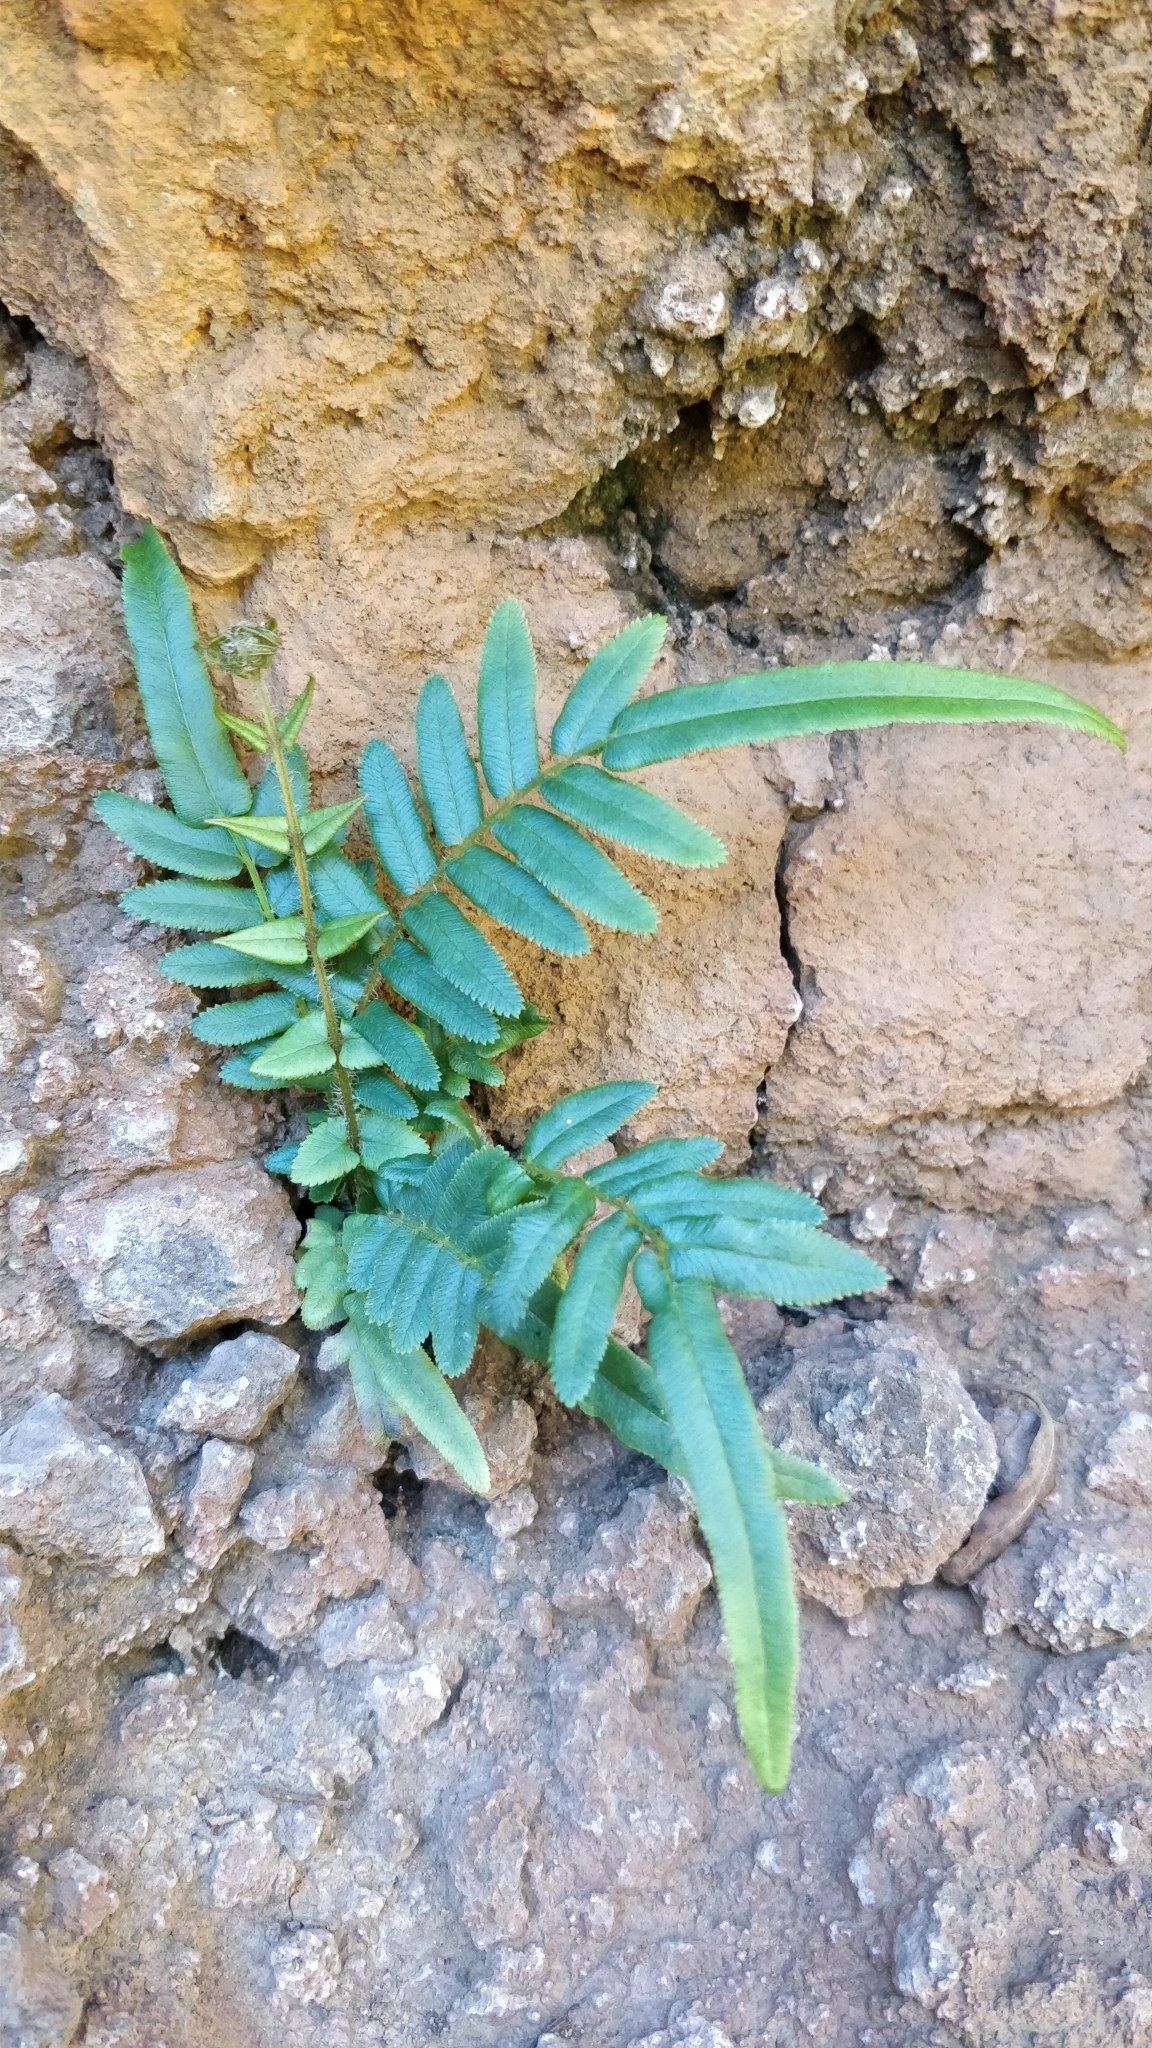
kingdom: Plantae
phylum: Tracheophyta
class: Polypodiopsida
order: Polypodiales
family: Pteridaceae
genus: Pteris
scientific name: Pteris vittata
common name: Ladder brake
